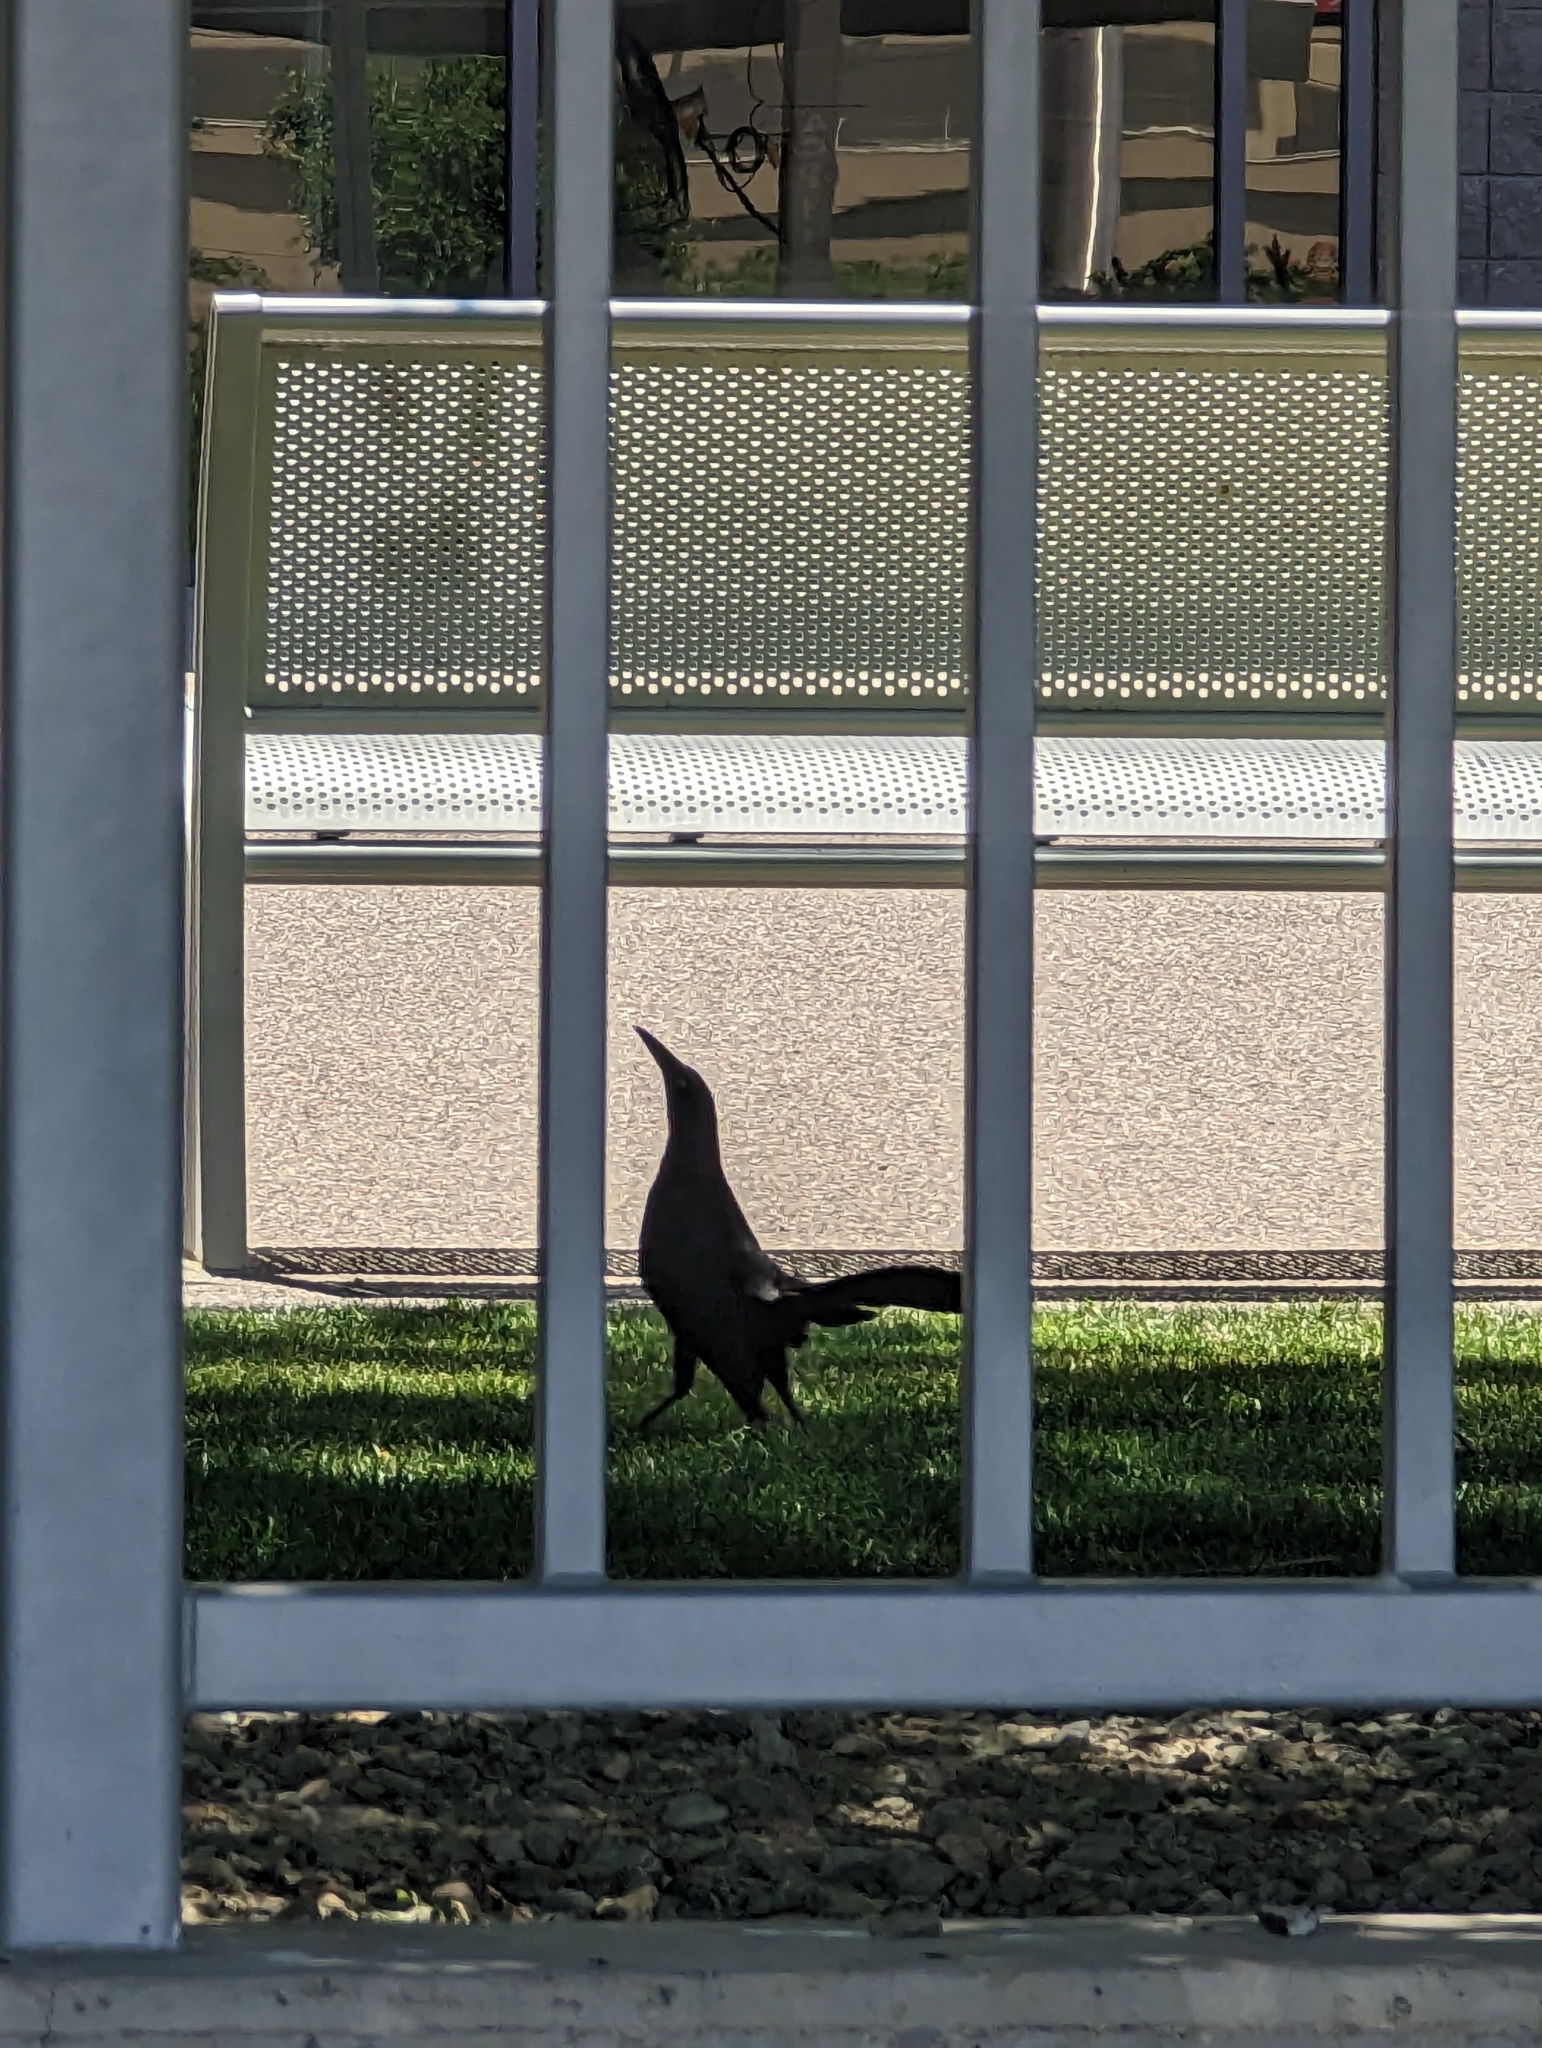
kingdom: Animalia
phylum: Chordata
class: Aves
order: Passeriformes
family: Icteridae
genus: Quiscalus
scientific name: Quiscalus mexicanus
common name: Great-tailed grackle
